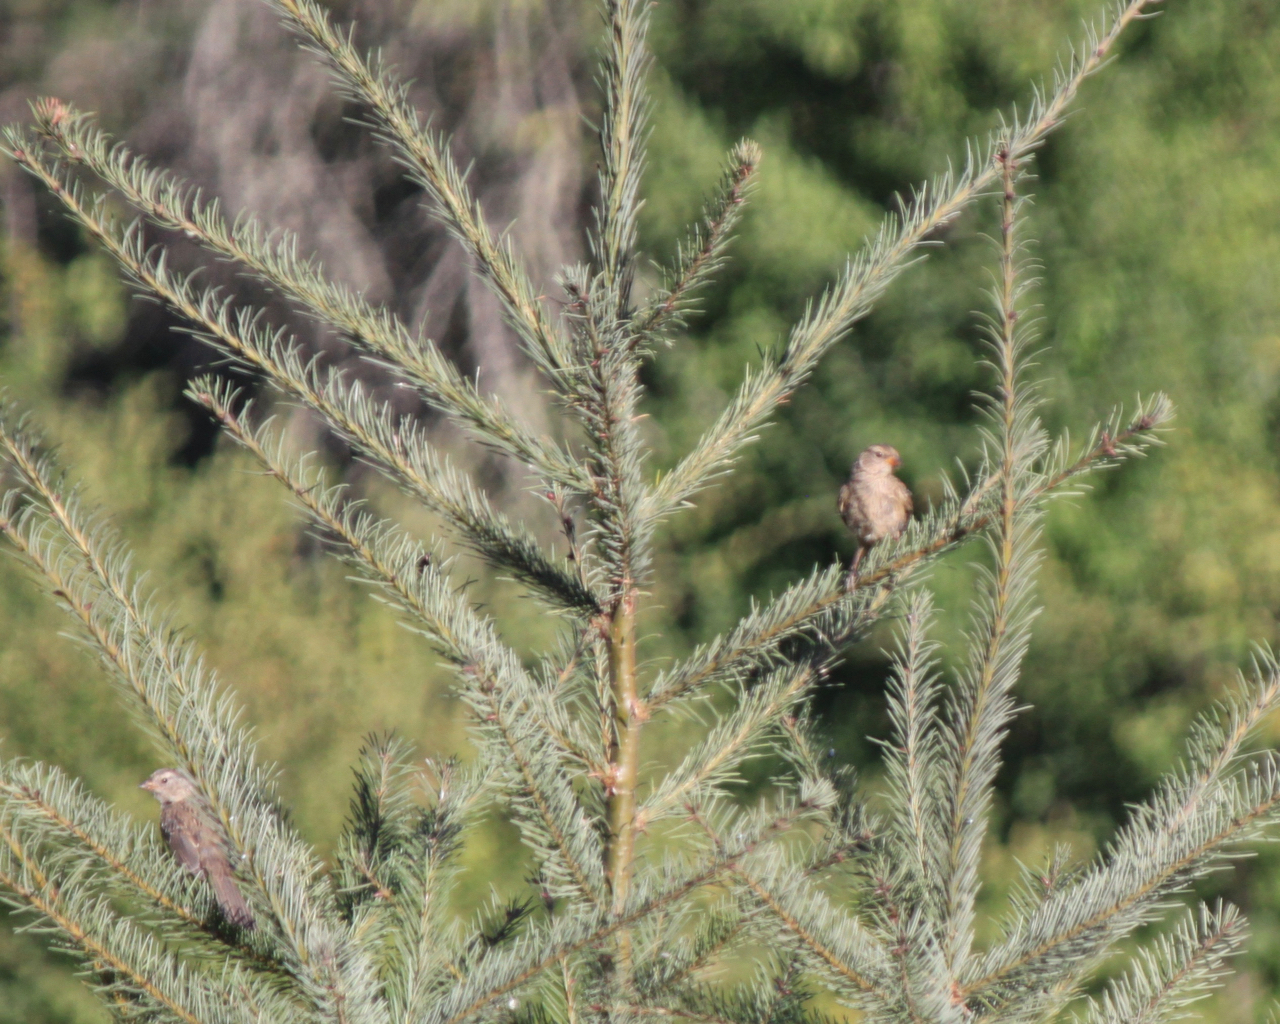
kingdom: Animalia
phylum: Chordata
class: Aves
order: Passeriformes
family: Passerellidae
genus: Zonotrichia
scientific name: Zonotrichia leucophrys
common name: White-crowned sparrow
